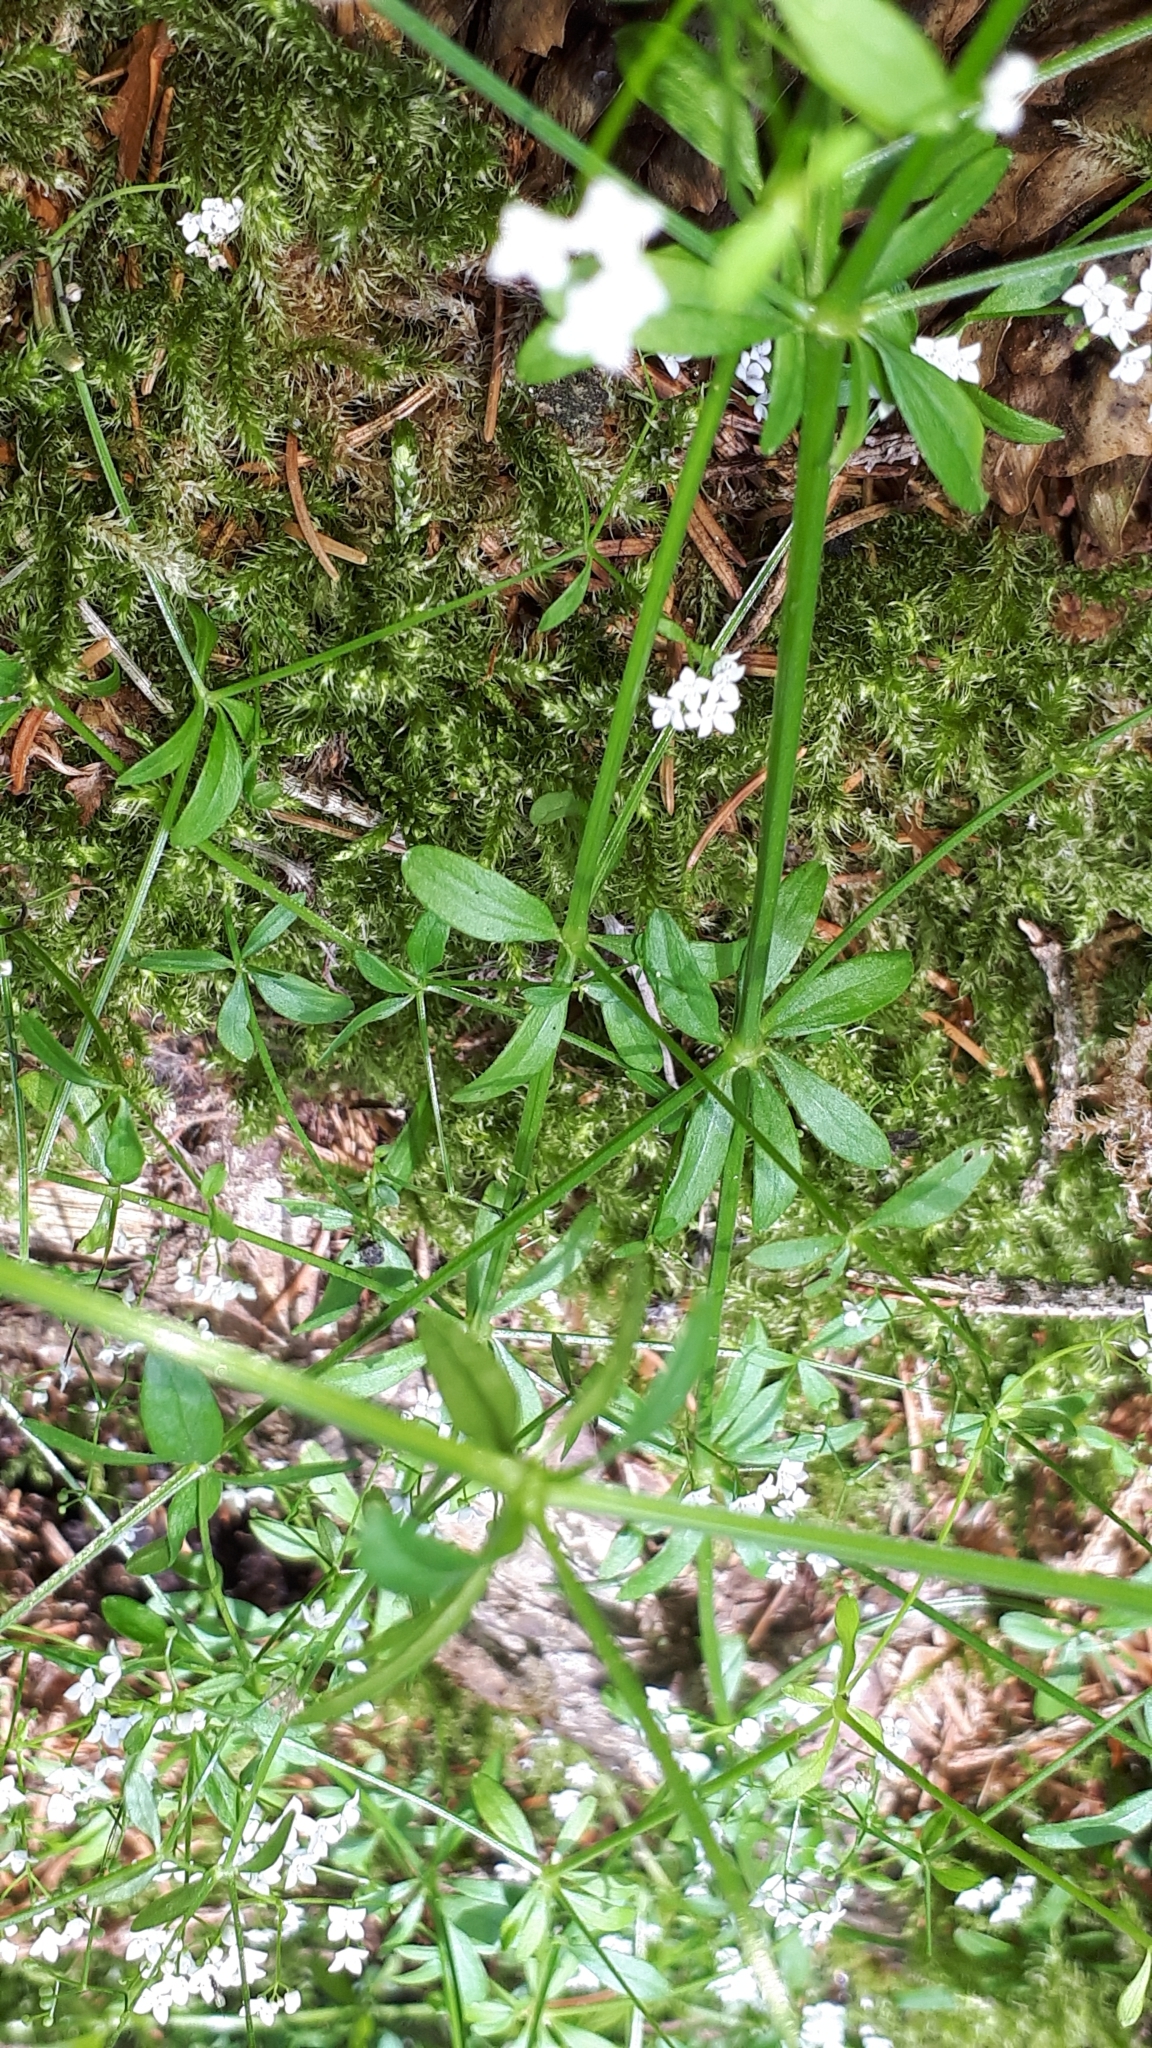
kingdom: Plantae
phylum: Tracheophyta
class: Magnoliopsida
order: Gentianales
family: Rubiaceae
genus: Galium
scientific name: Galium palustre
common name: Common marsh-bedstraw
